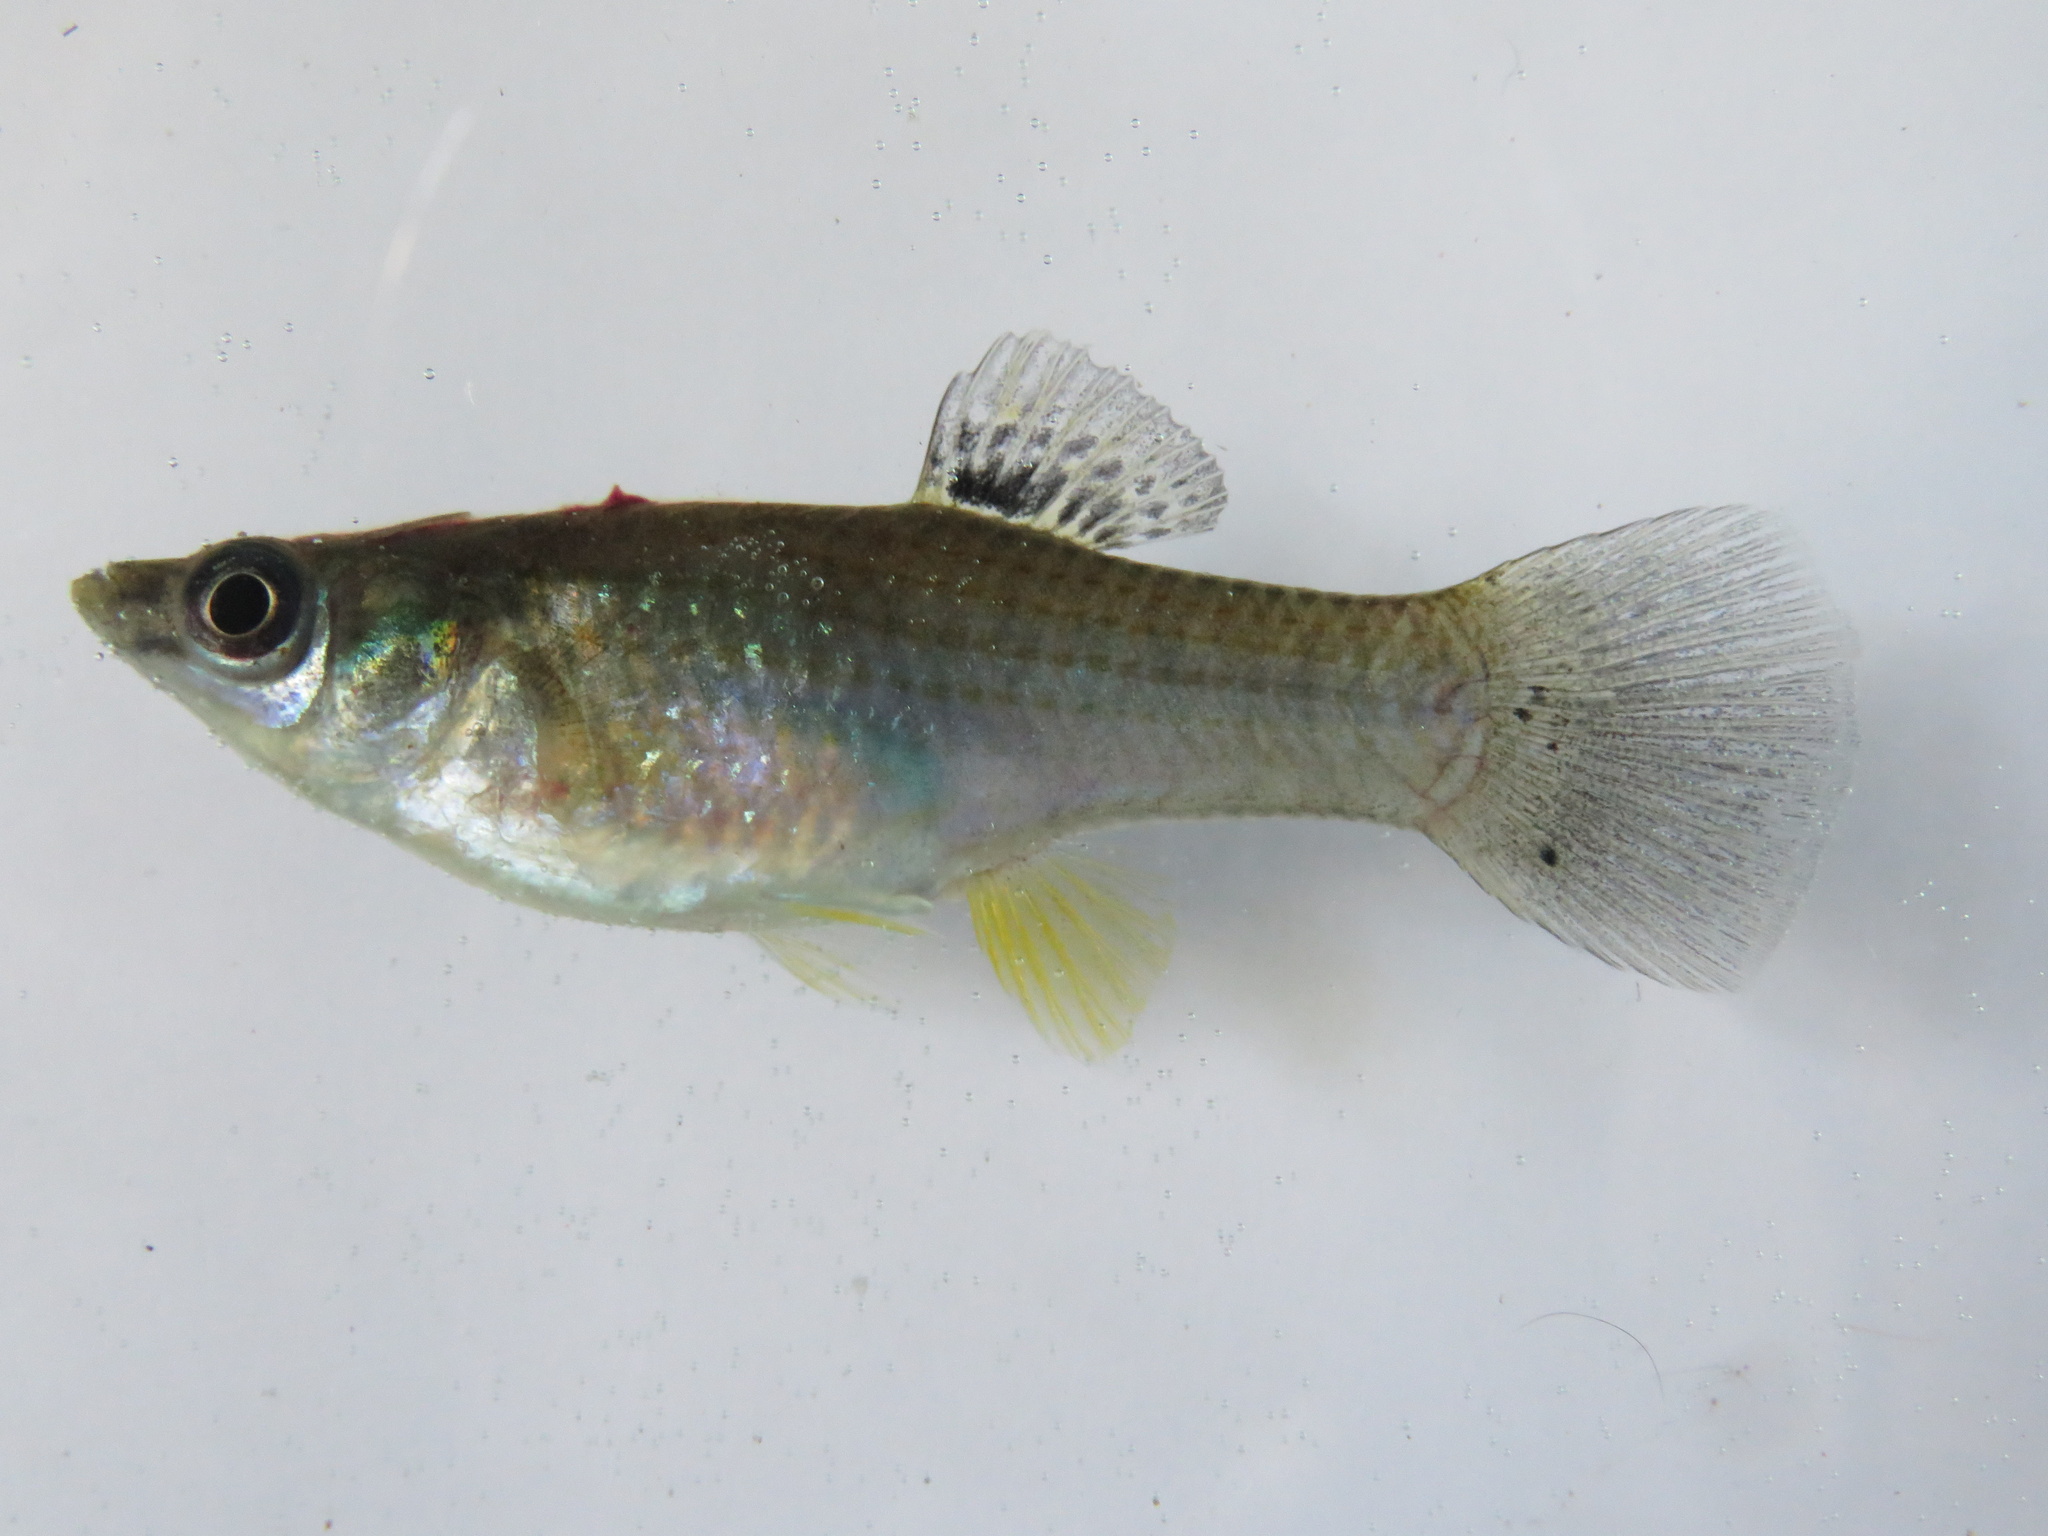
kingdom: Animalia
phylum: Chordata
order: Cyprinodontiformes
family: Poeciliidae
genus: Poecilia
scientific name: Poecilia mexicana
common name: Shortfin molly
